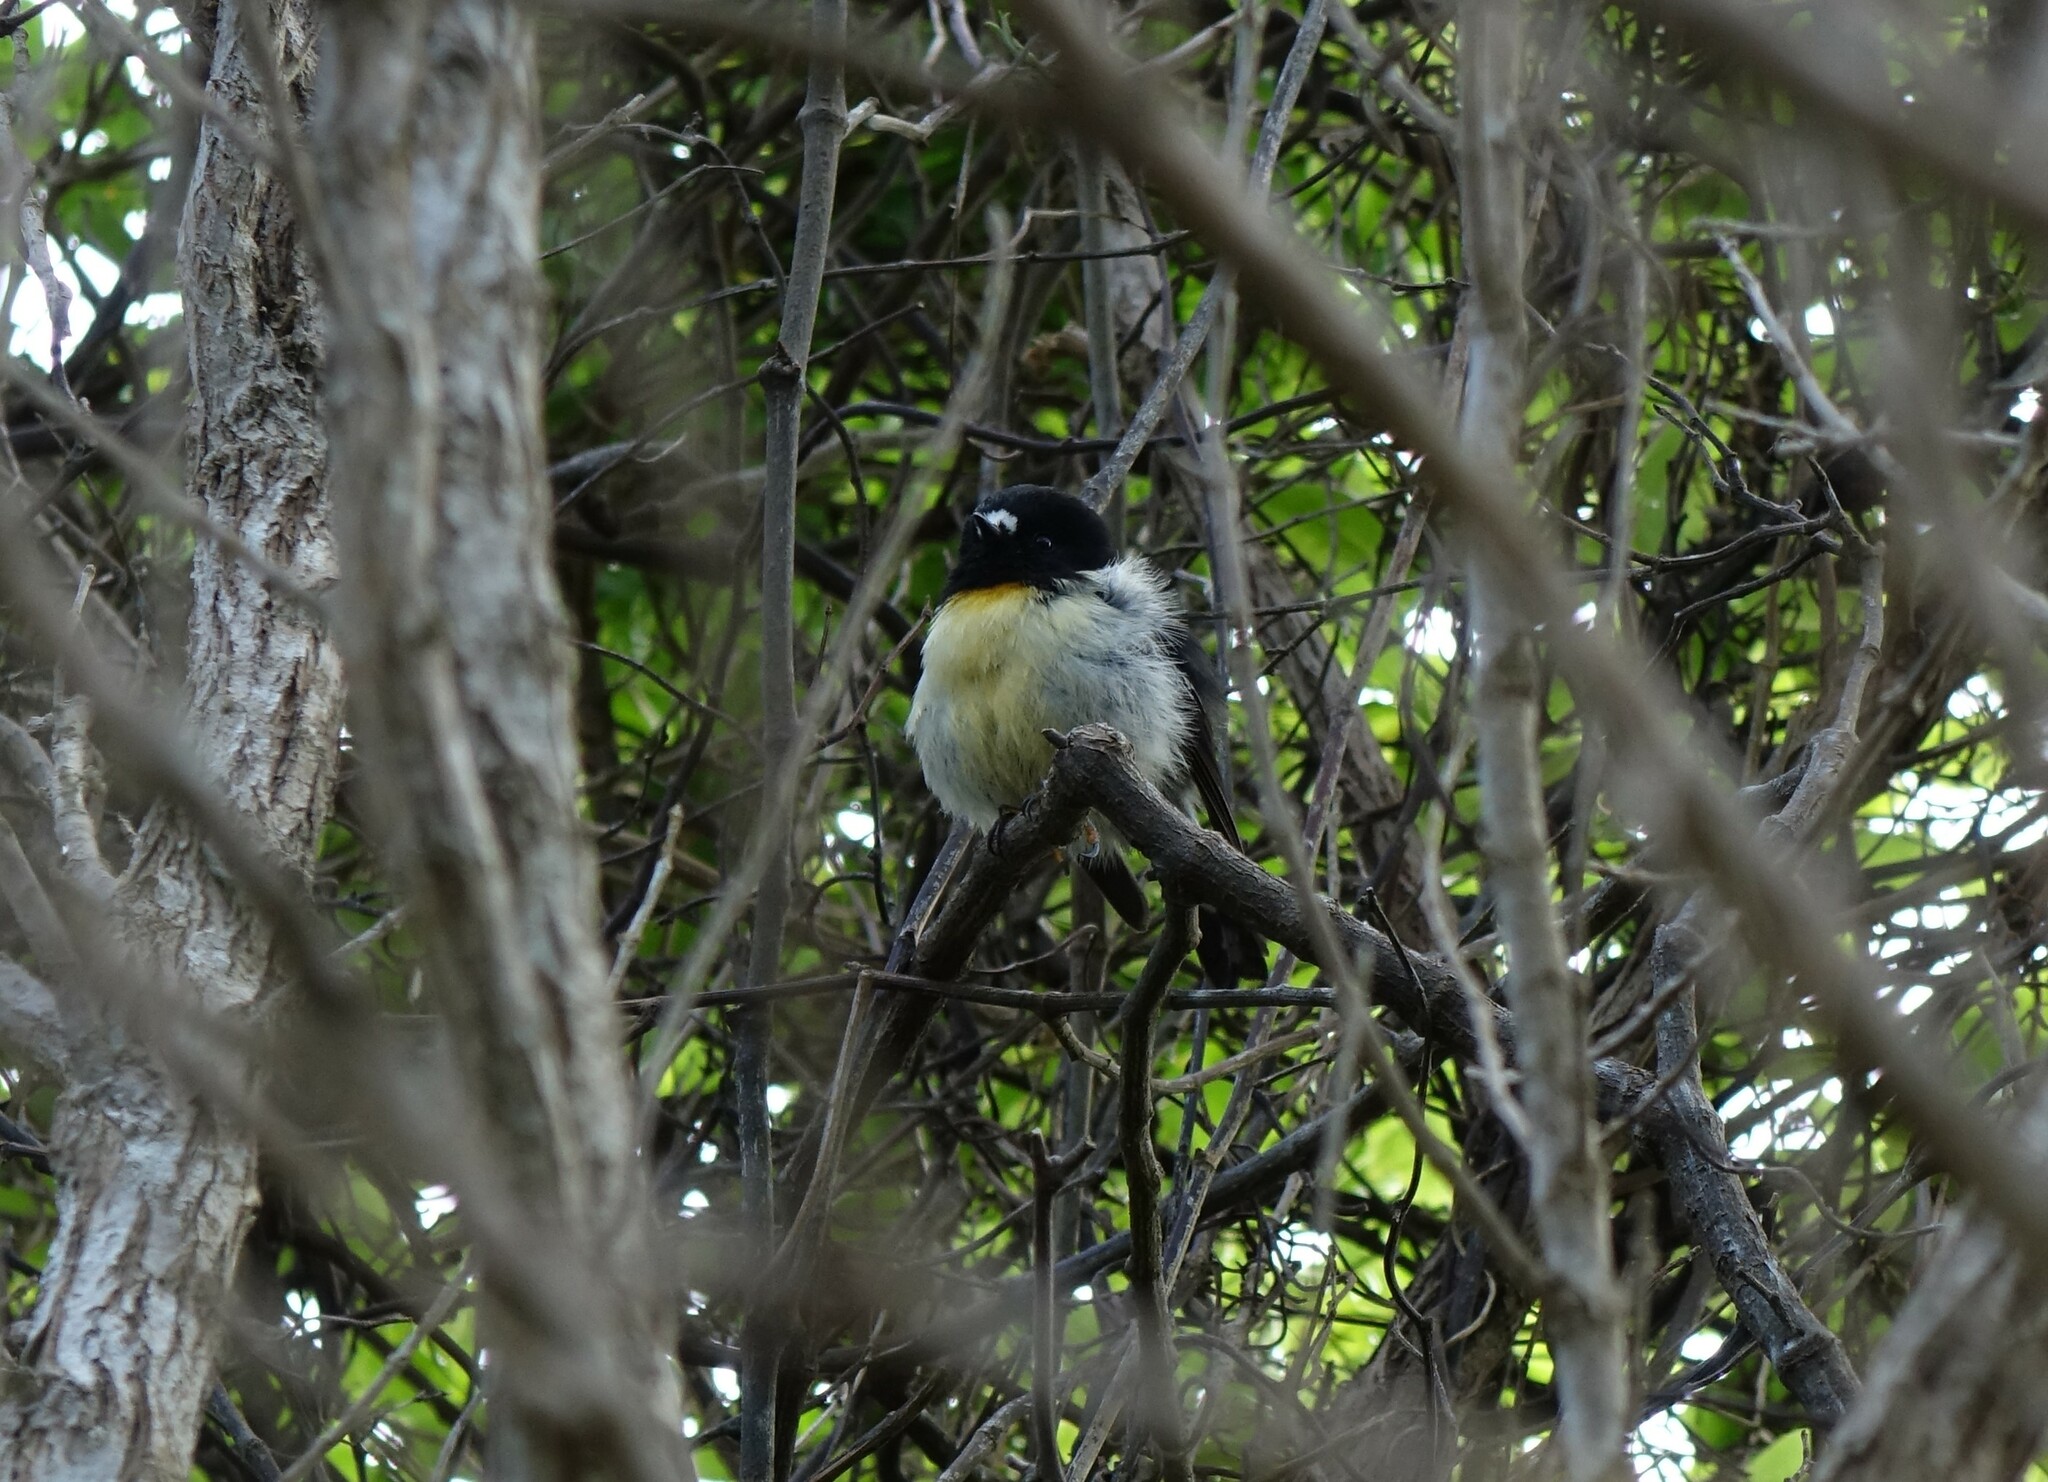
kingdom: Animalia
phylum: Chordata
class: Aves
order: Passeriformes
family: Petroicidae
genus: Petroica
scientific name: Petroica macrocephala
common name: Tomtit
